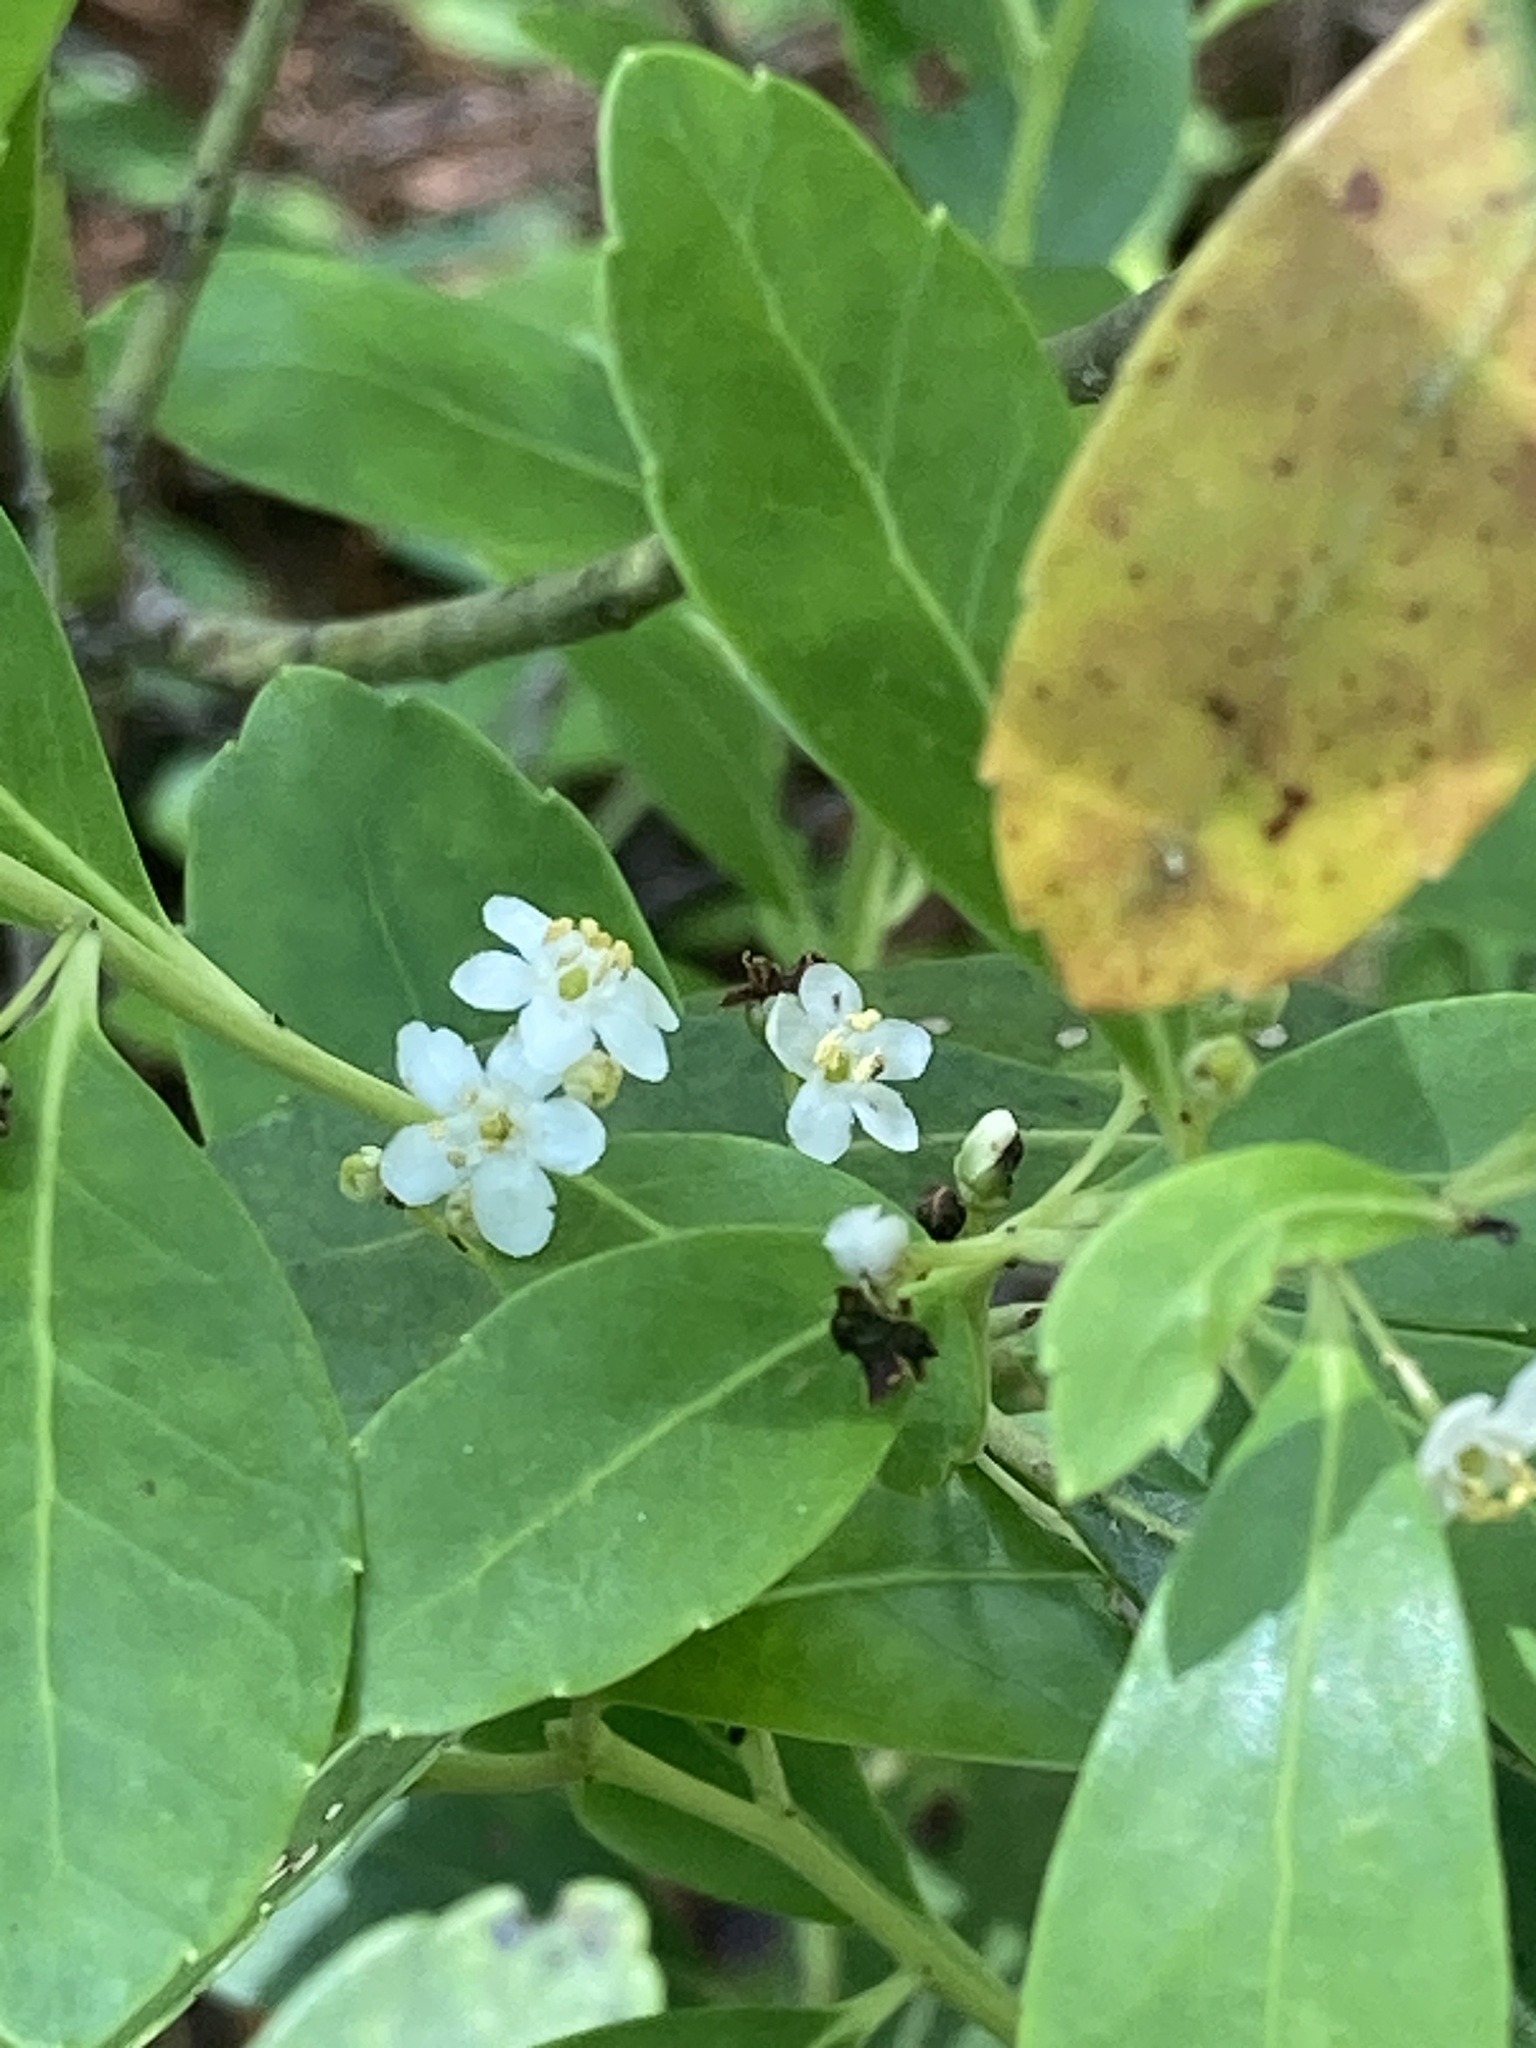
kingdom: Plantae
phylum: Tracheophyta
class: Magnoliopsida
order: Aquifoliales
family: Aquifoliaceae
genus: Ilex
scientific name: Ilex glabra
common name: Bitter gallberry
